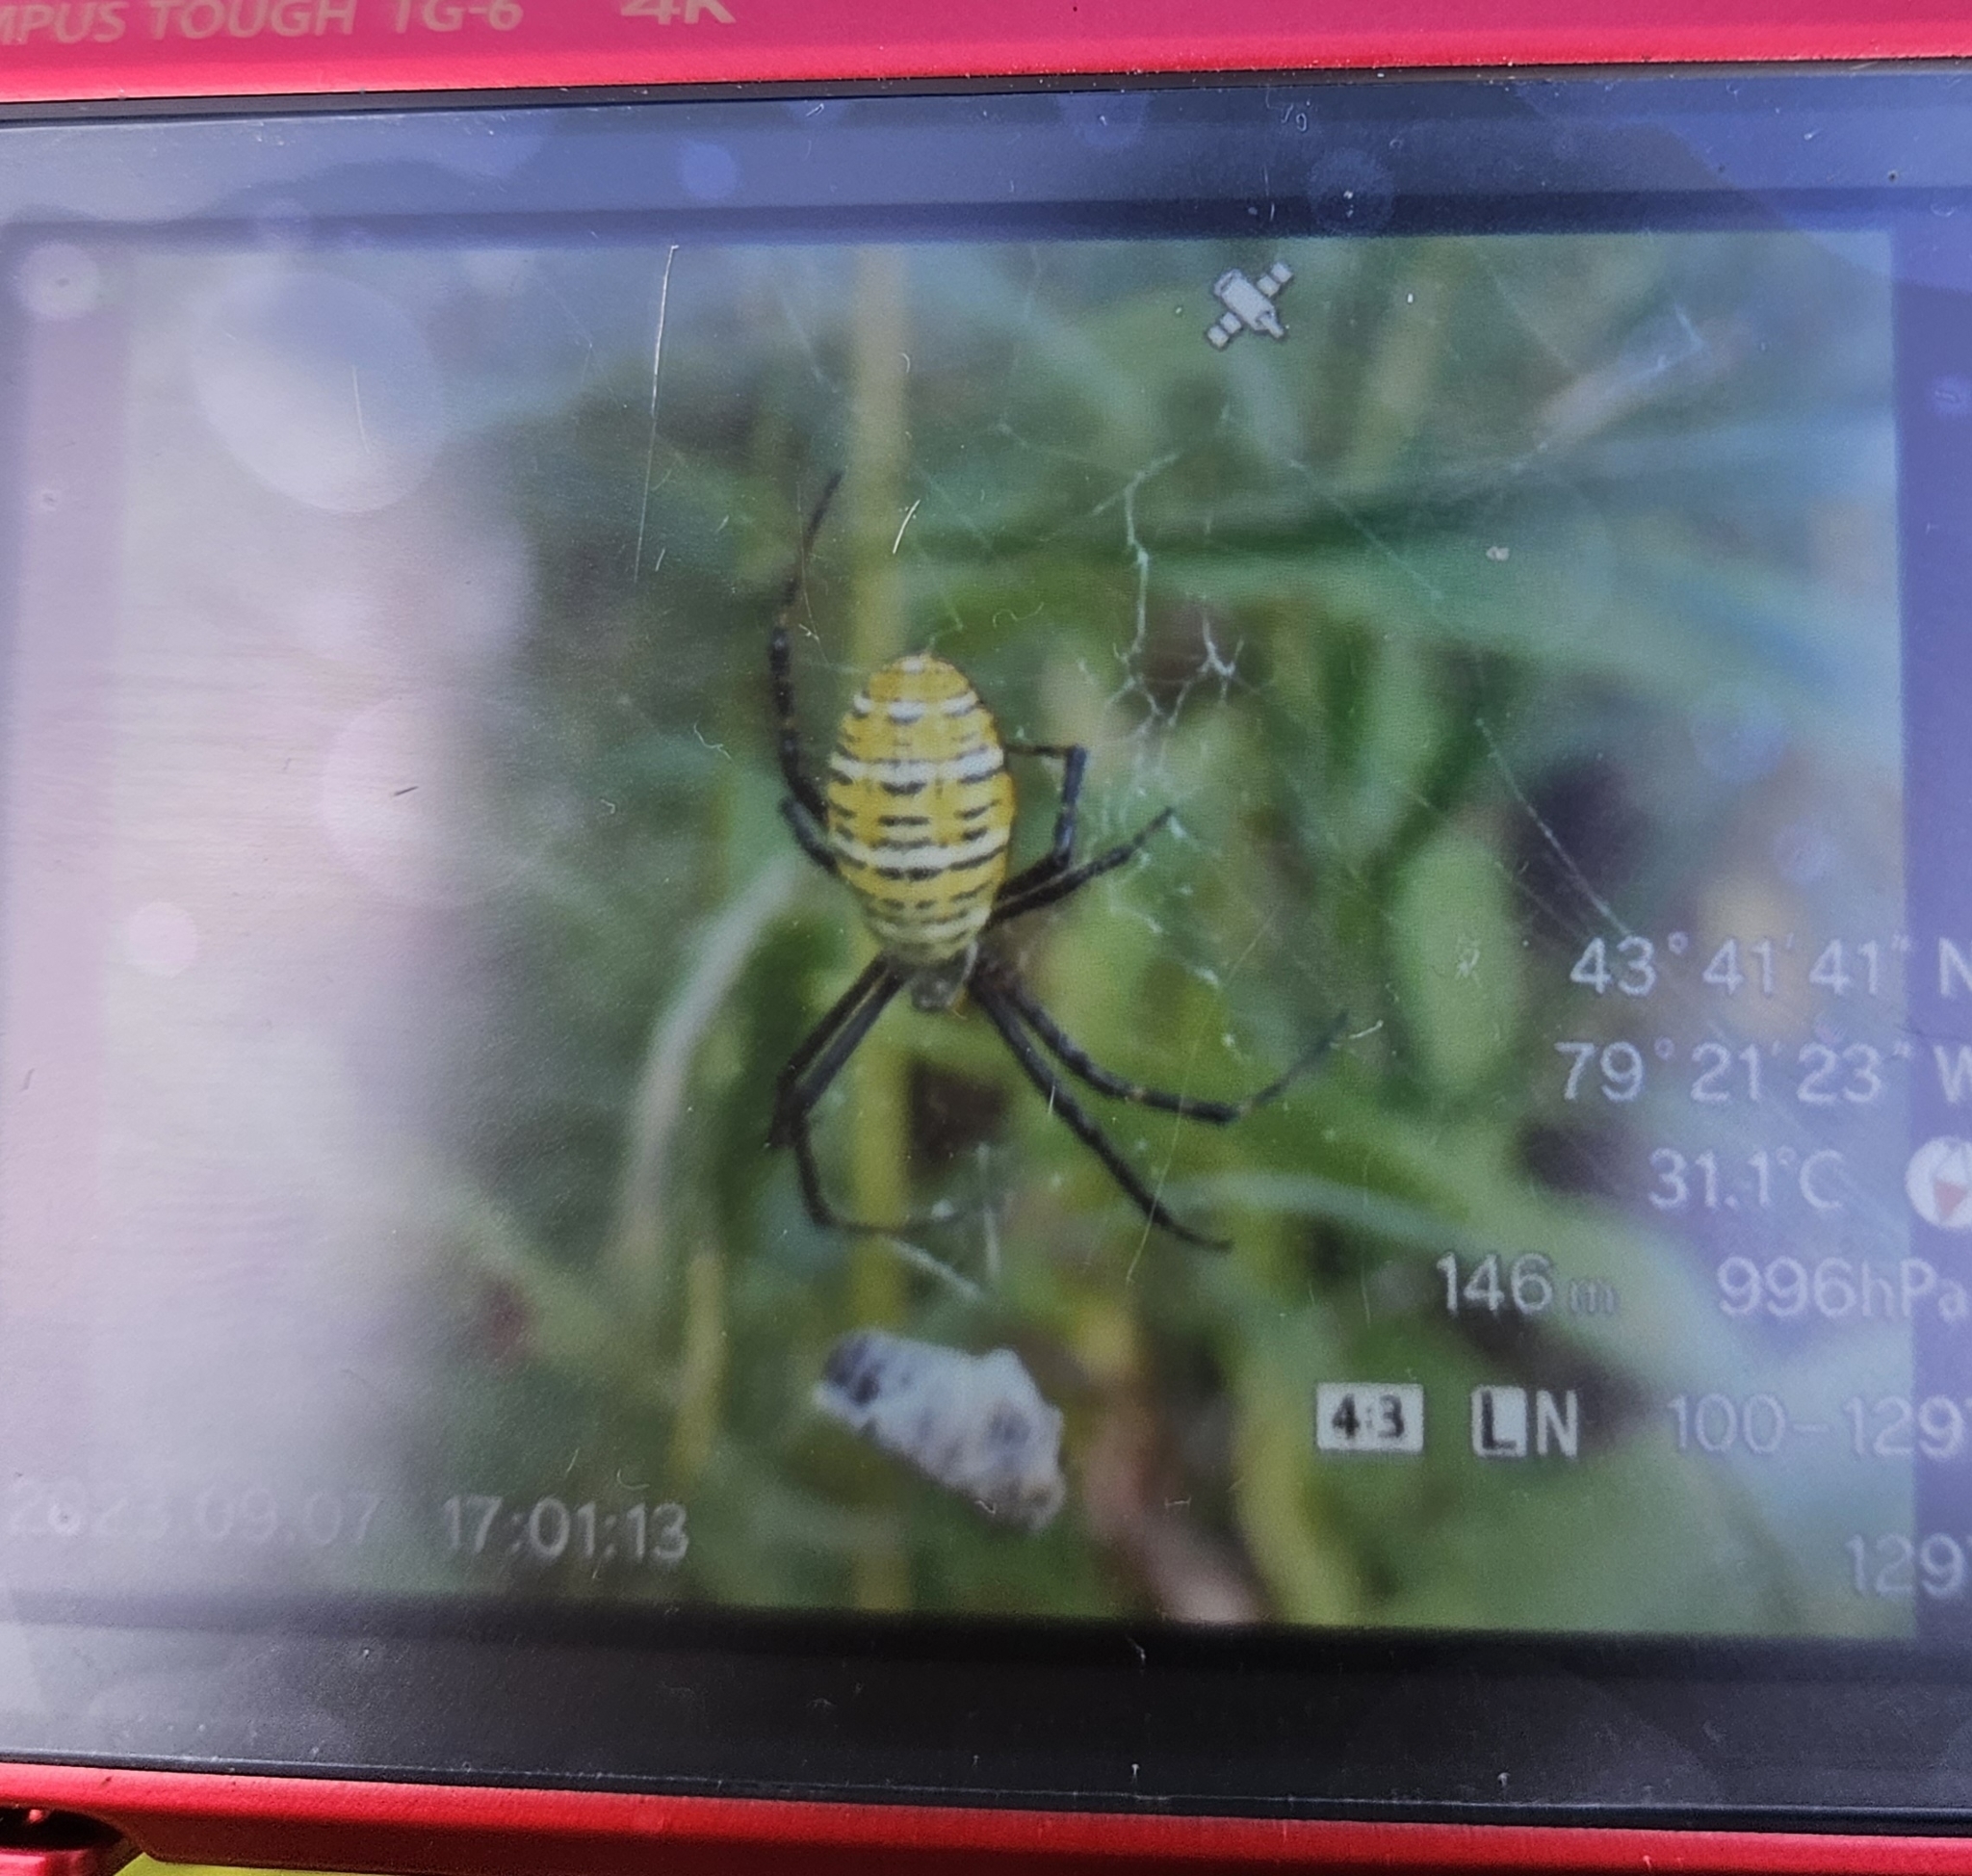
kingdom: Animalia
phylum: Arthropoda
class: Arachnida
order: Araneae
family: Araneidae
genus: Argiope
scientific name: Argiope trifasciata
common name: Banded garden spider
